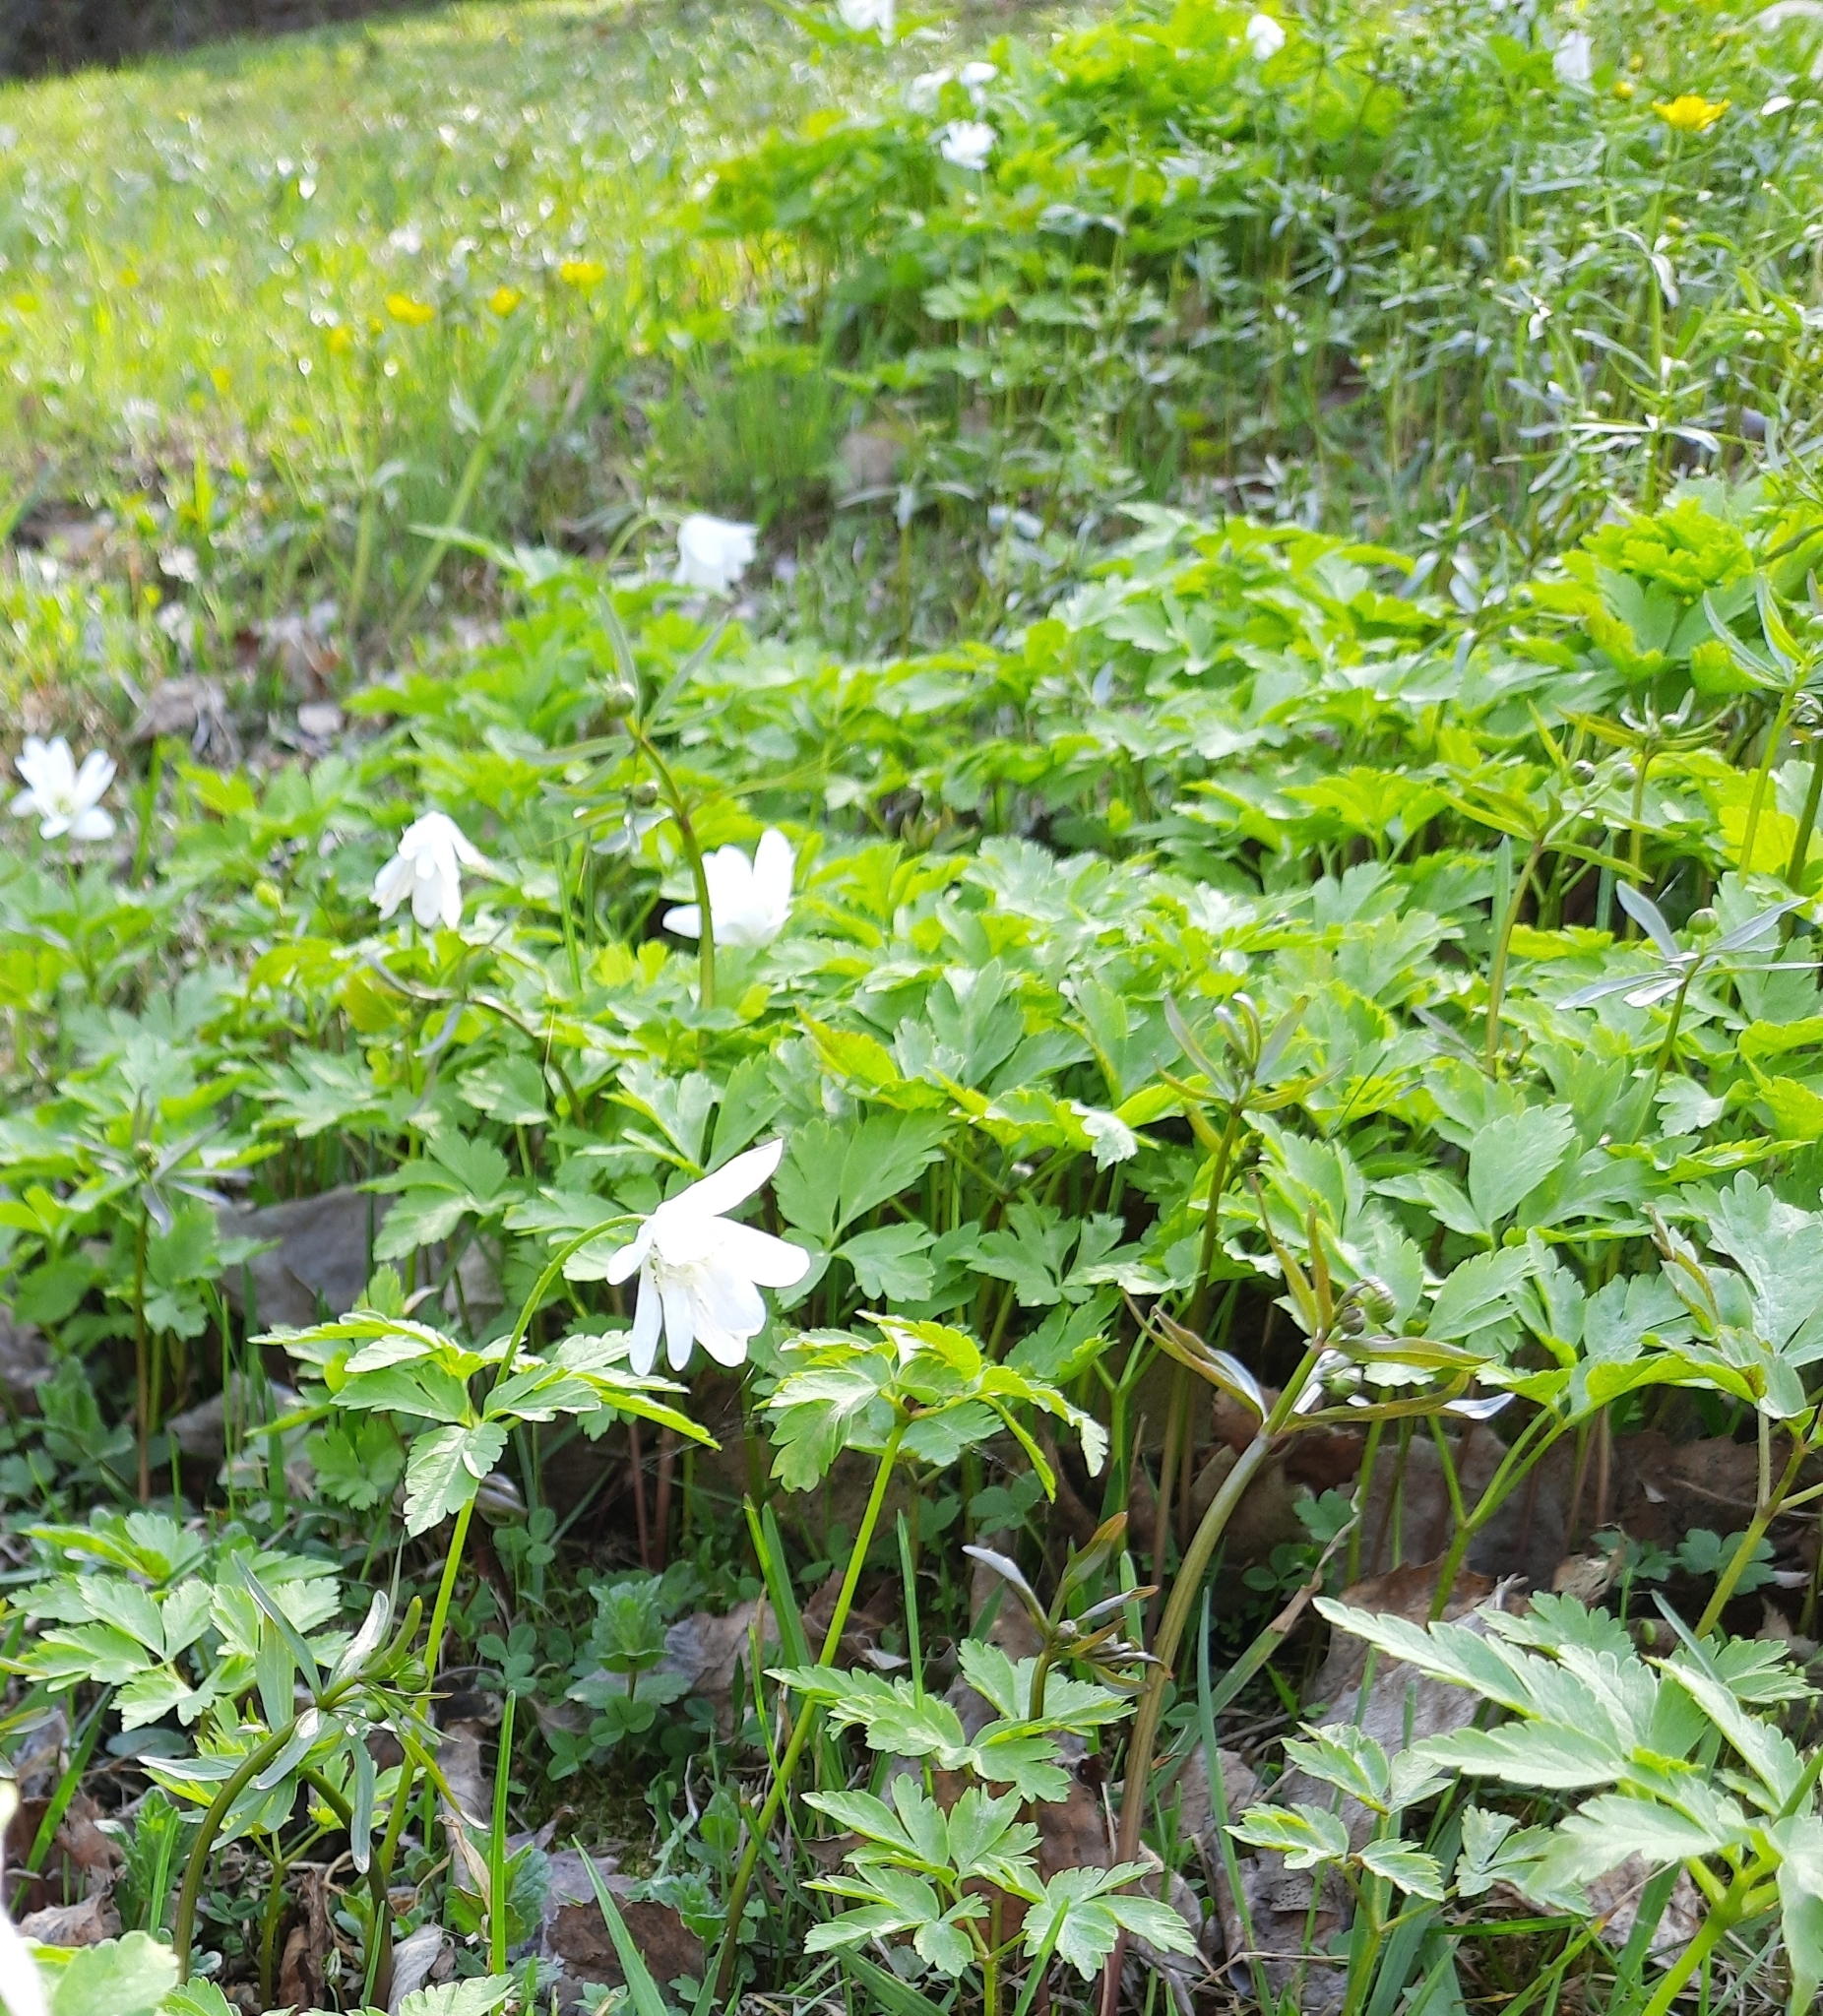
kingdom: Plantae
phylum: Tracheophyta
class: Magnoliopsida
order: Ranunculales
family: Ranunculaceae
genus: Anemone
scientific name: Anemone altaica
